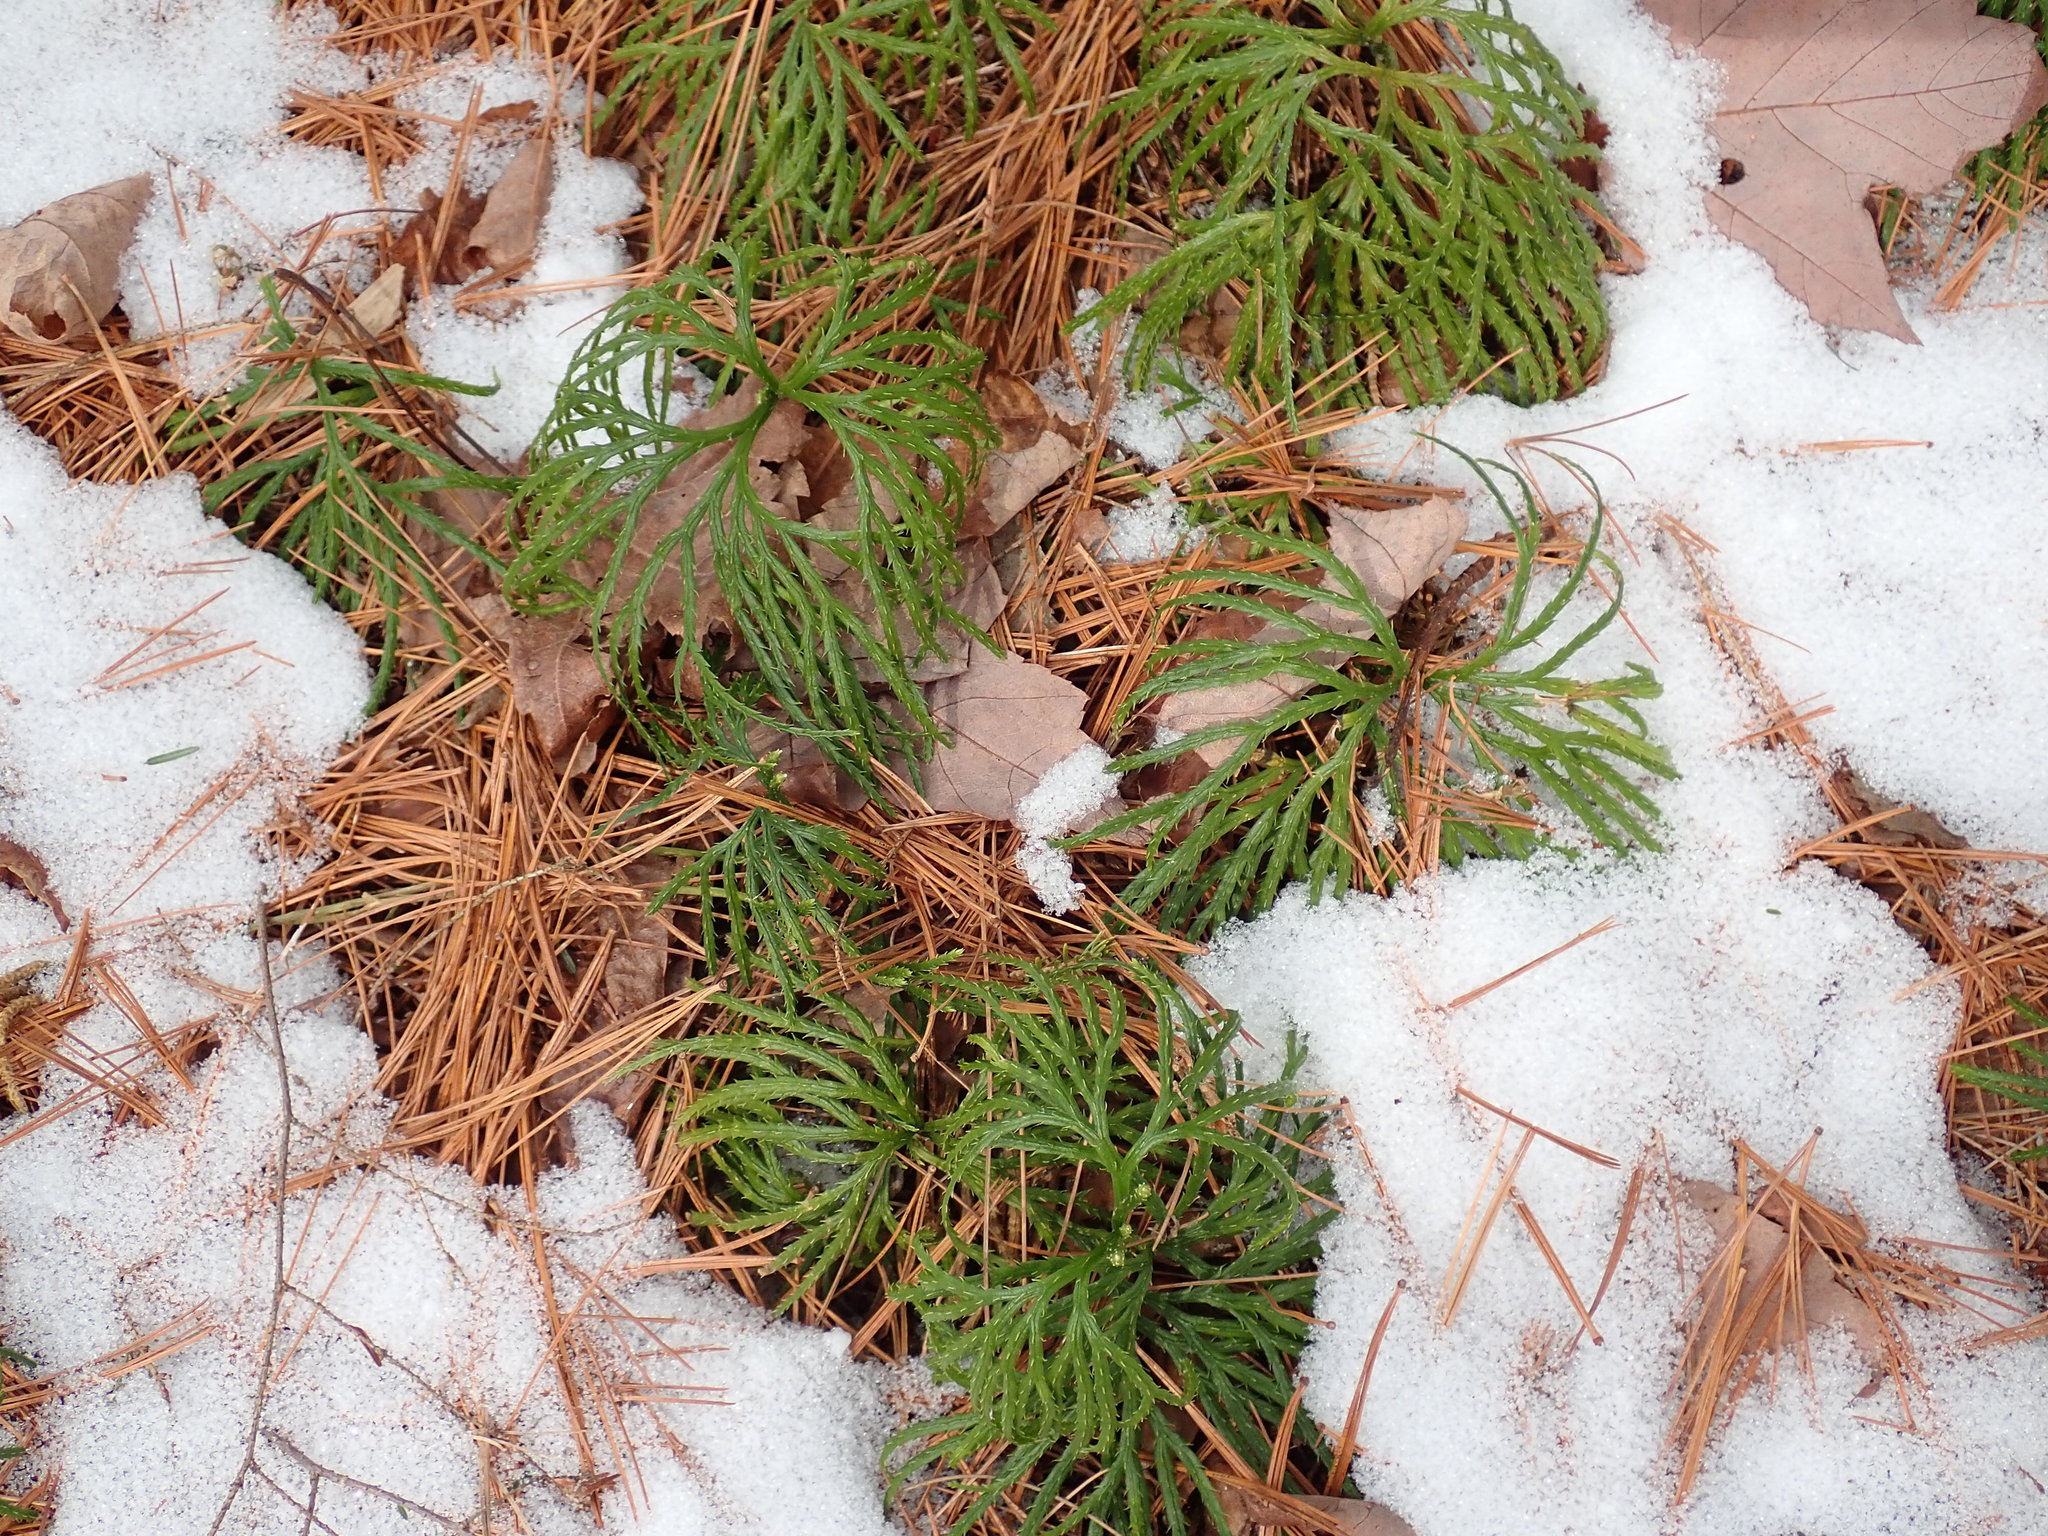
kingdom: Plantae
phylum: Tracheophyta
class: Lycopodiopsida
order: Lycopodiales
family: Lycopodiaceae
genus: Diphasiastrum
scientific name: Diphasiastrum digitatum
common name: Southern running-pine
